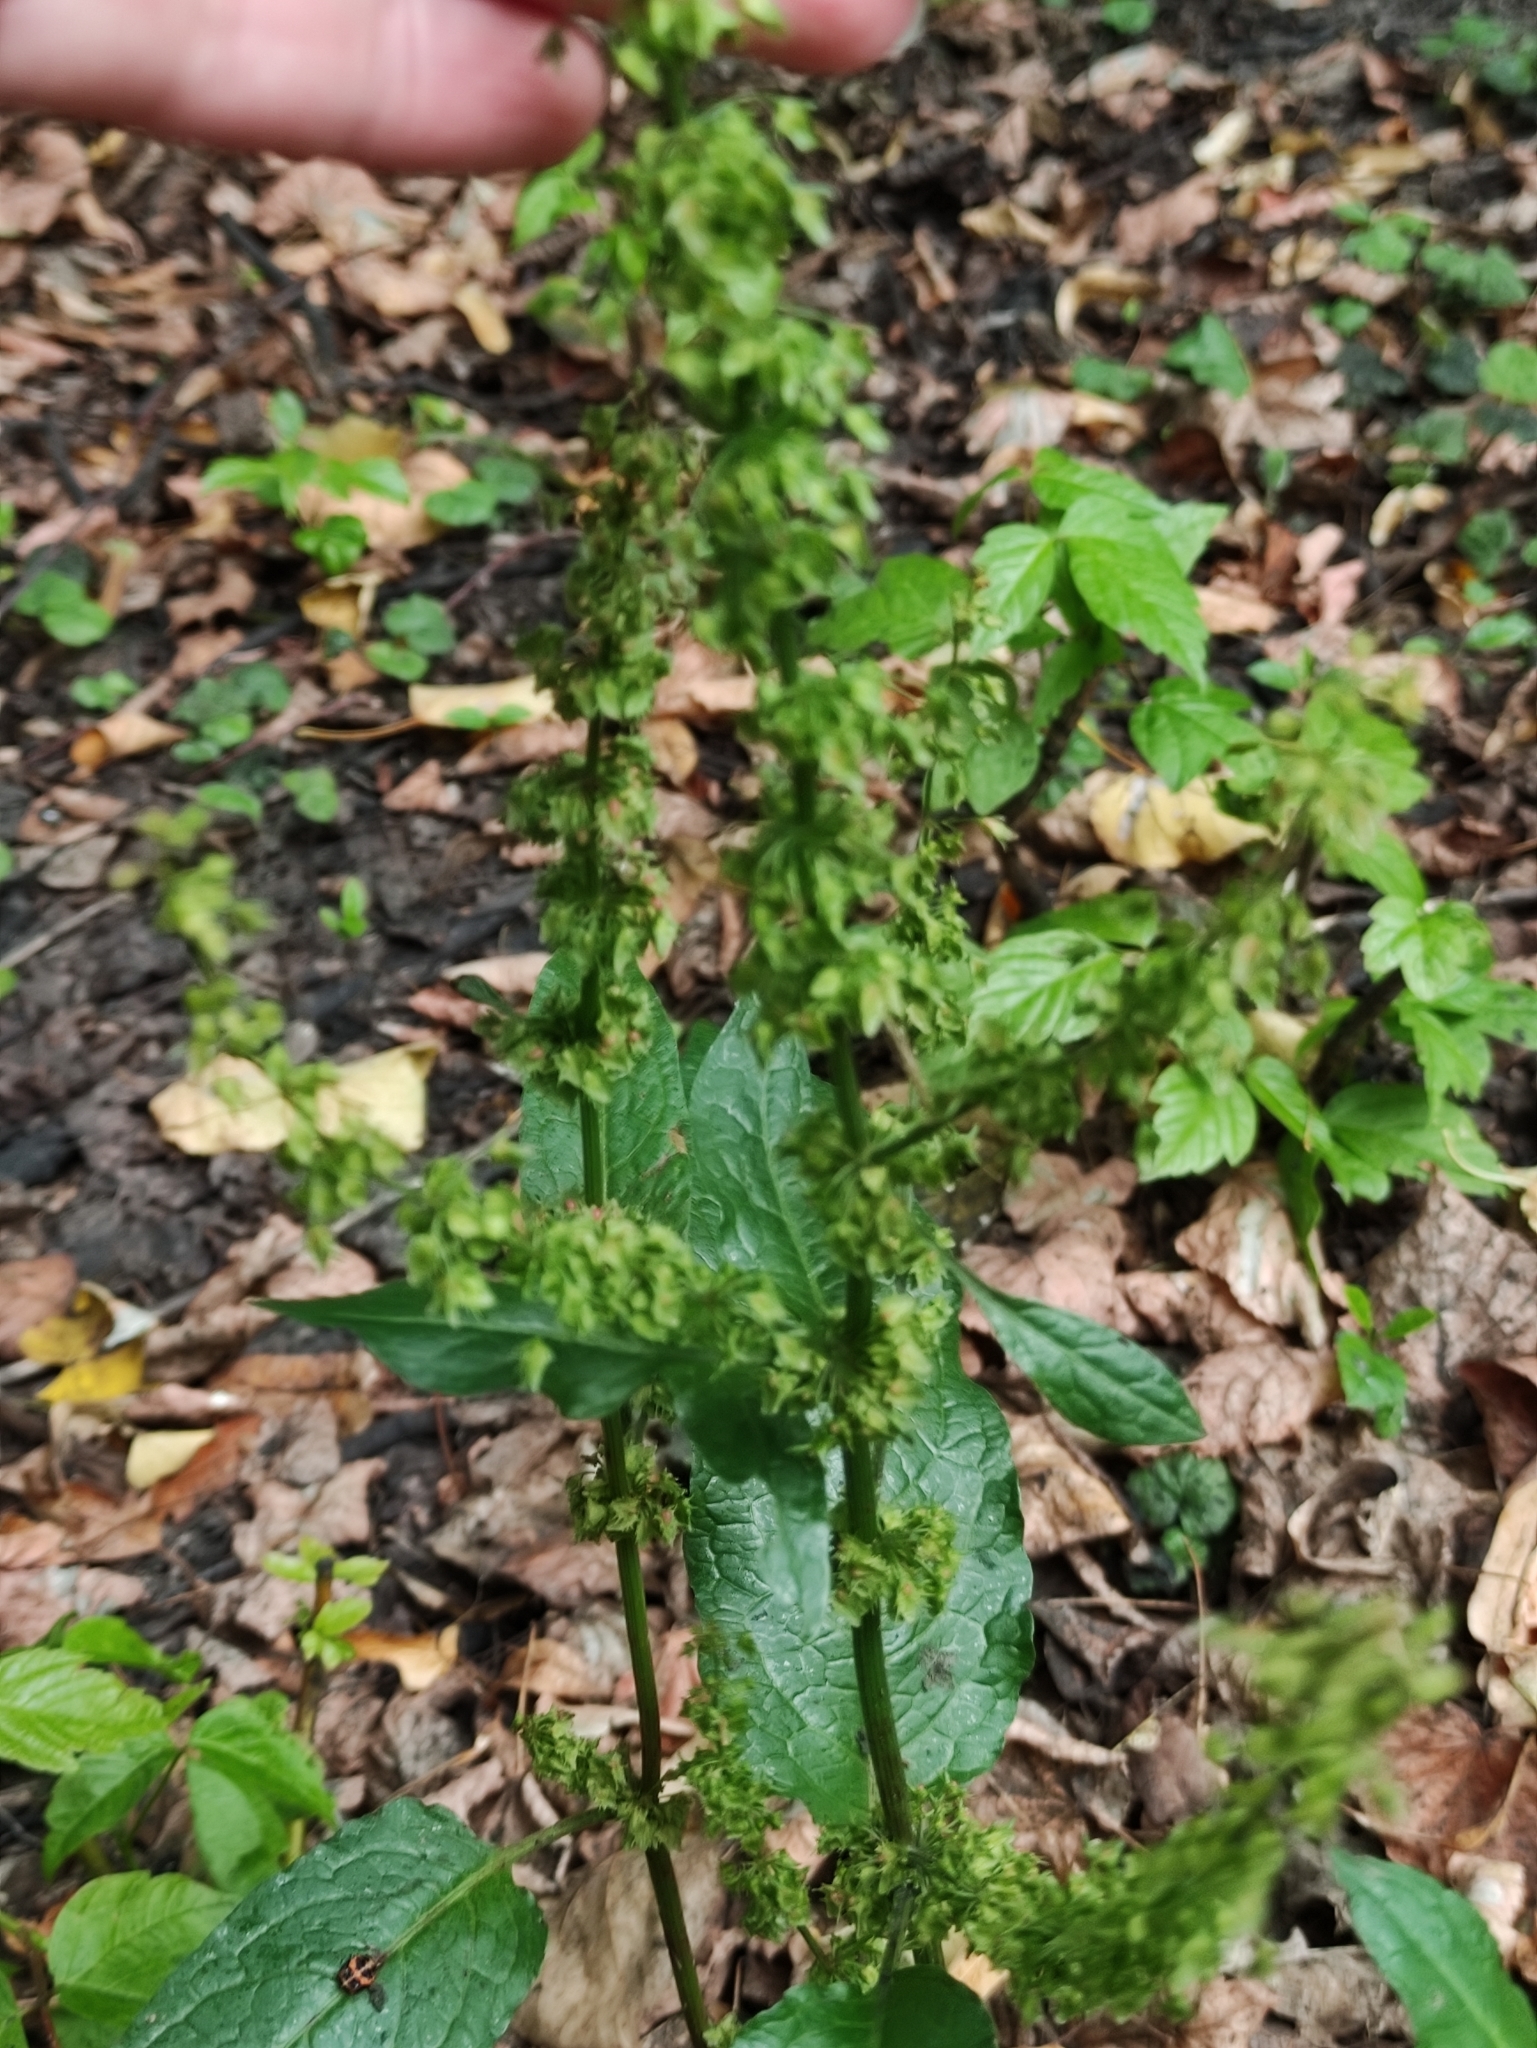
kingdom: Plantae
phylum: Tracheophyta
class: Magnoliopsida
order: Caryophyllales
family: Polygonaceae
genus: Rumex
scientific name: Rumex obtusifolius
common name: Bitter dock
